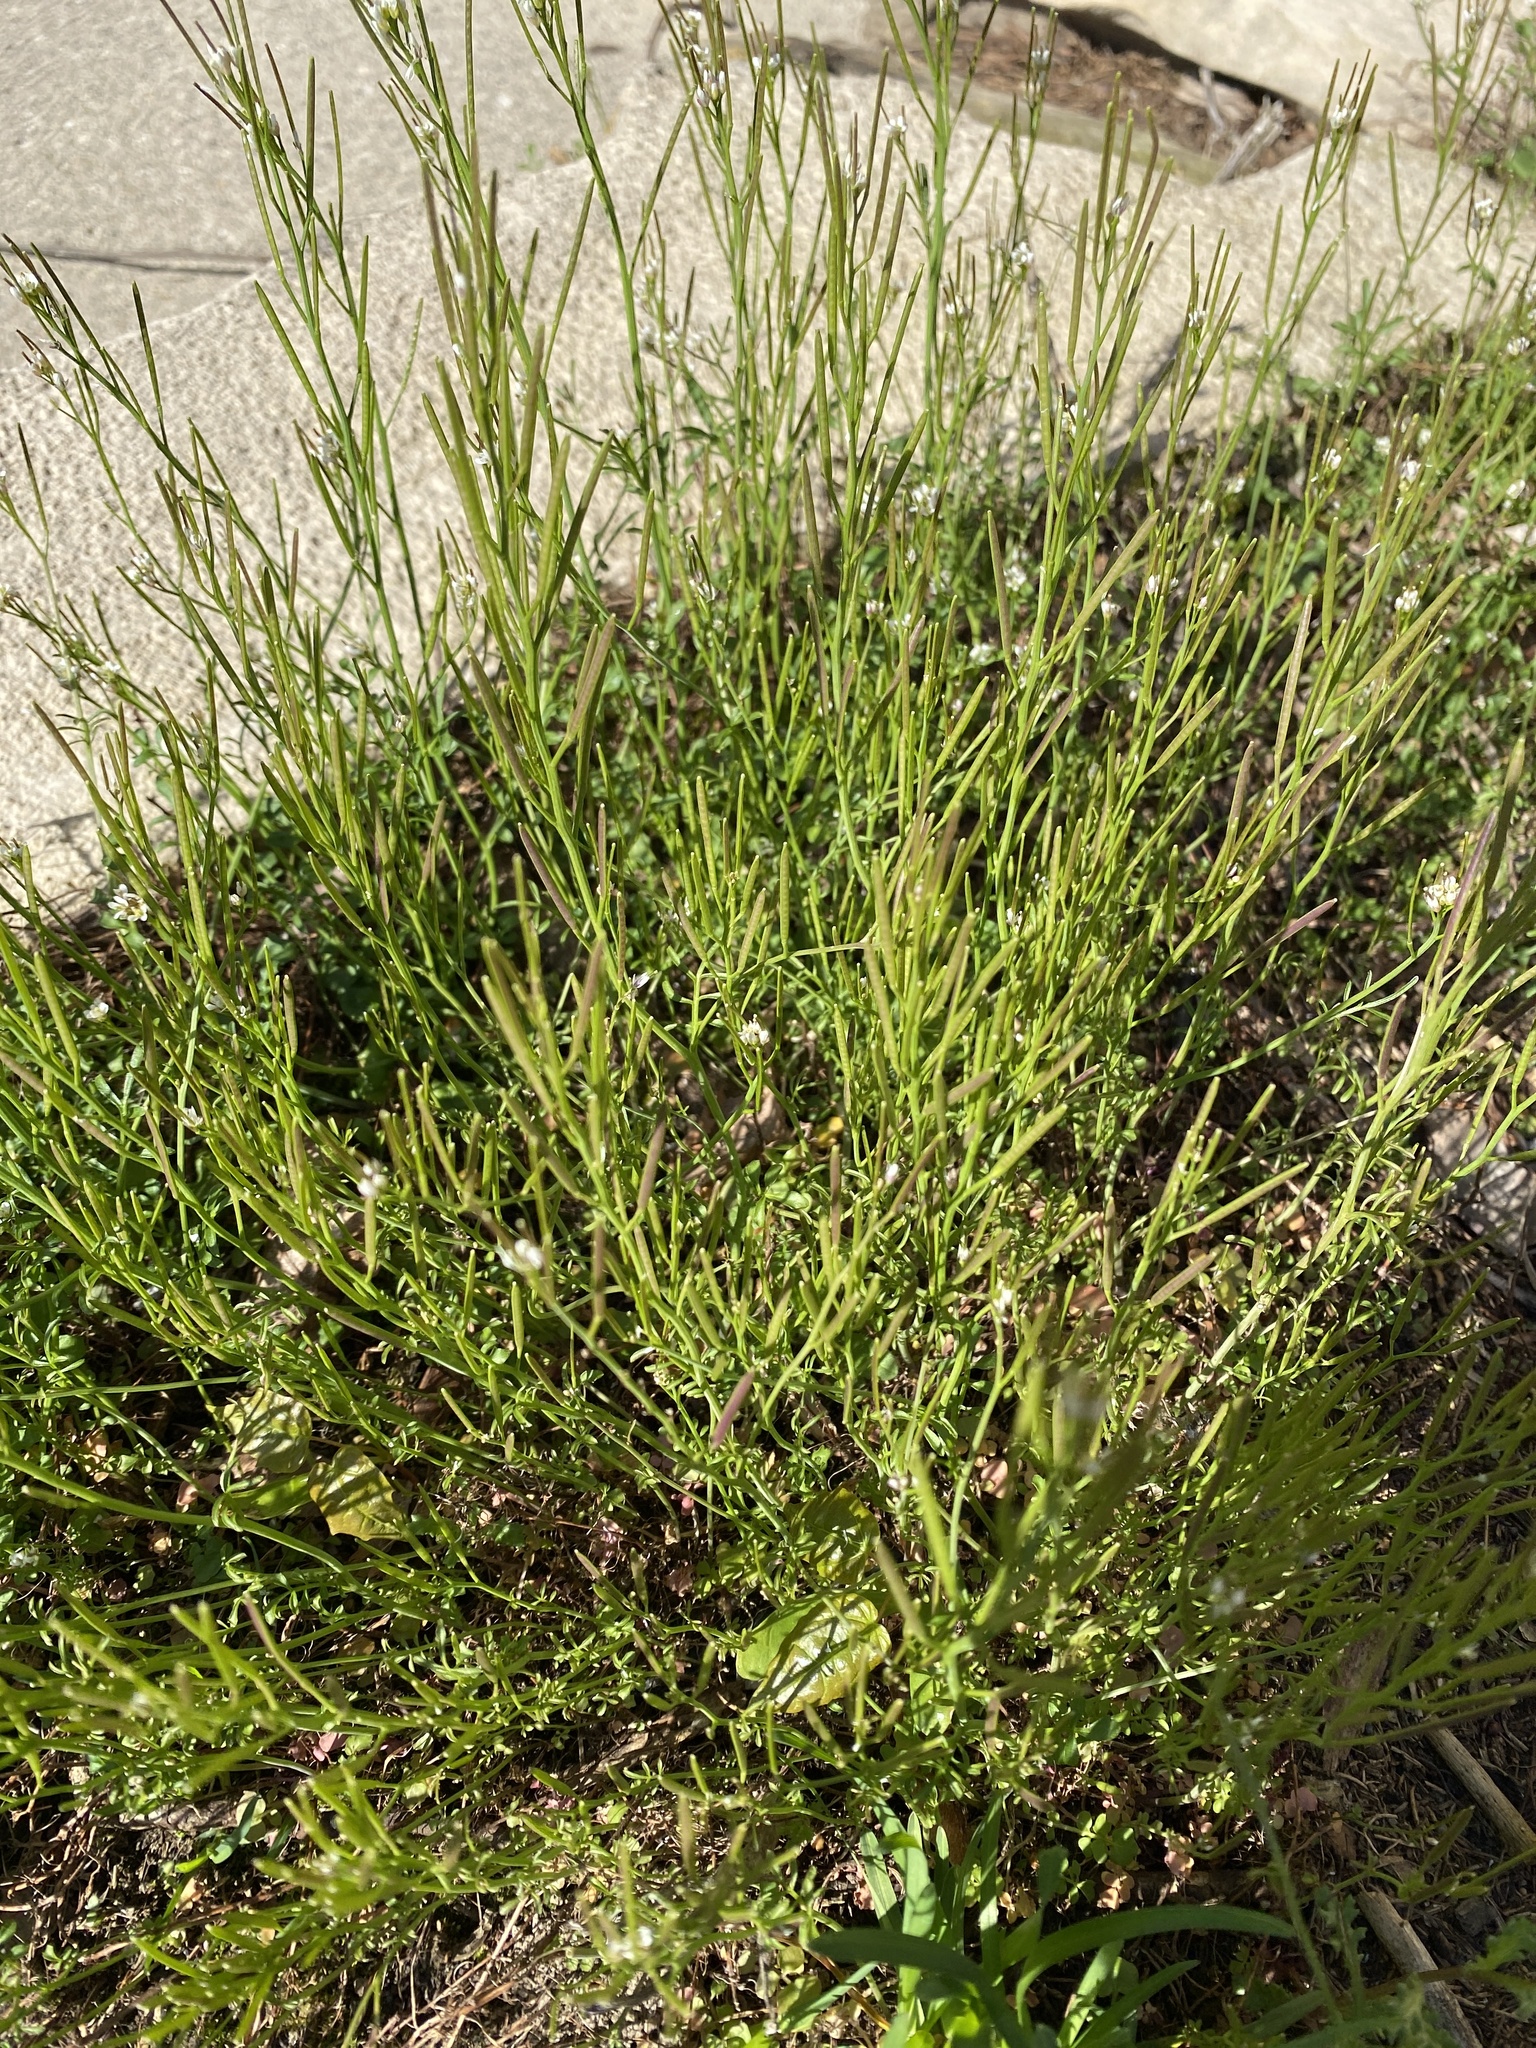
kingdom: Plantae
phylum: Tracheophyta
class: Magnoliopsida
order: Brassicales
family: Brassicaceae
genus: Cardamine
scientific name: Cardamine hirsuta
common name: Hairy bittercress
